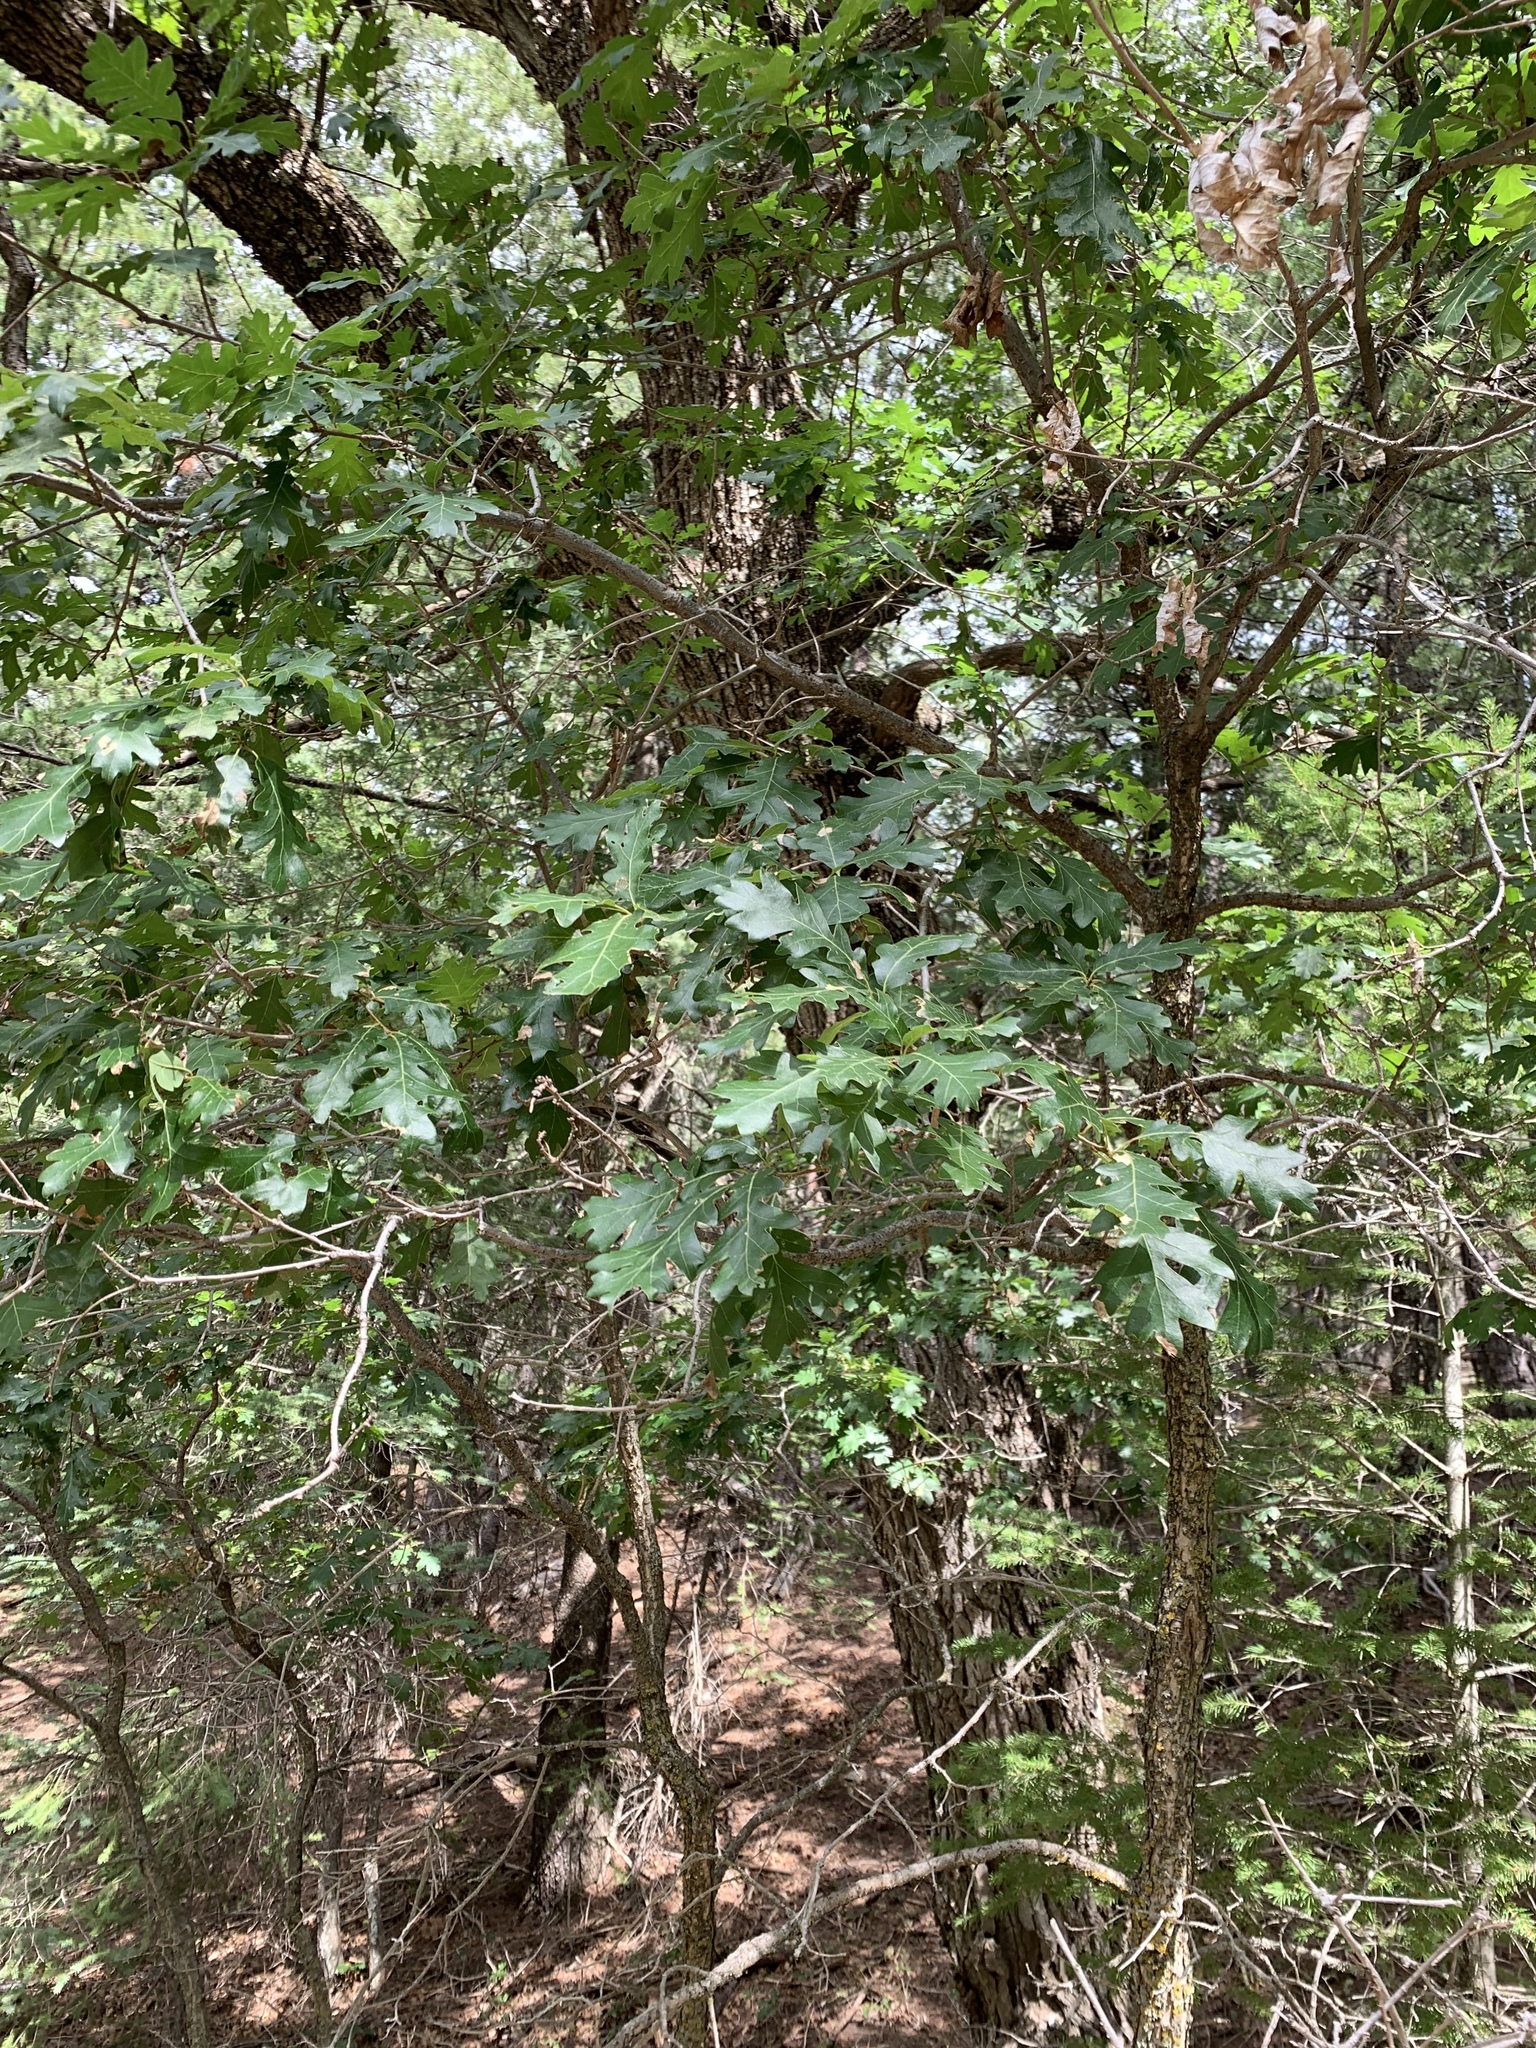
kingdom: Plantae
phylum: Tracheophyta
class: Magnoliopsida
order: Fagales
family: Fagaceae
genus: Quercus
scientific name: Quercus gambelii
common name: Gambel oak
